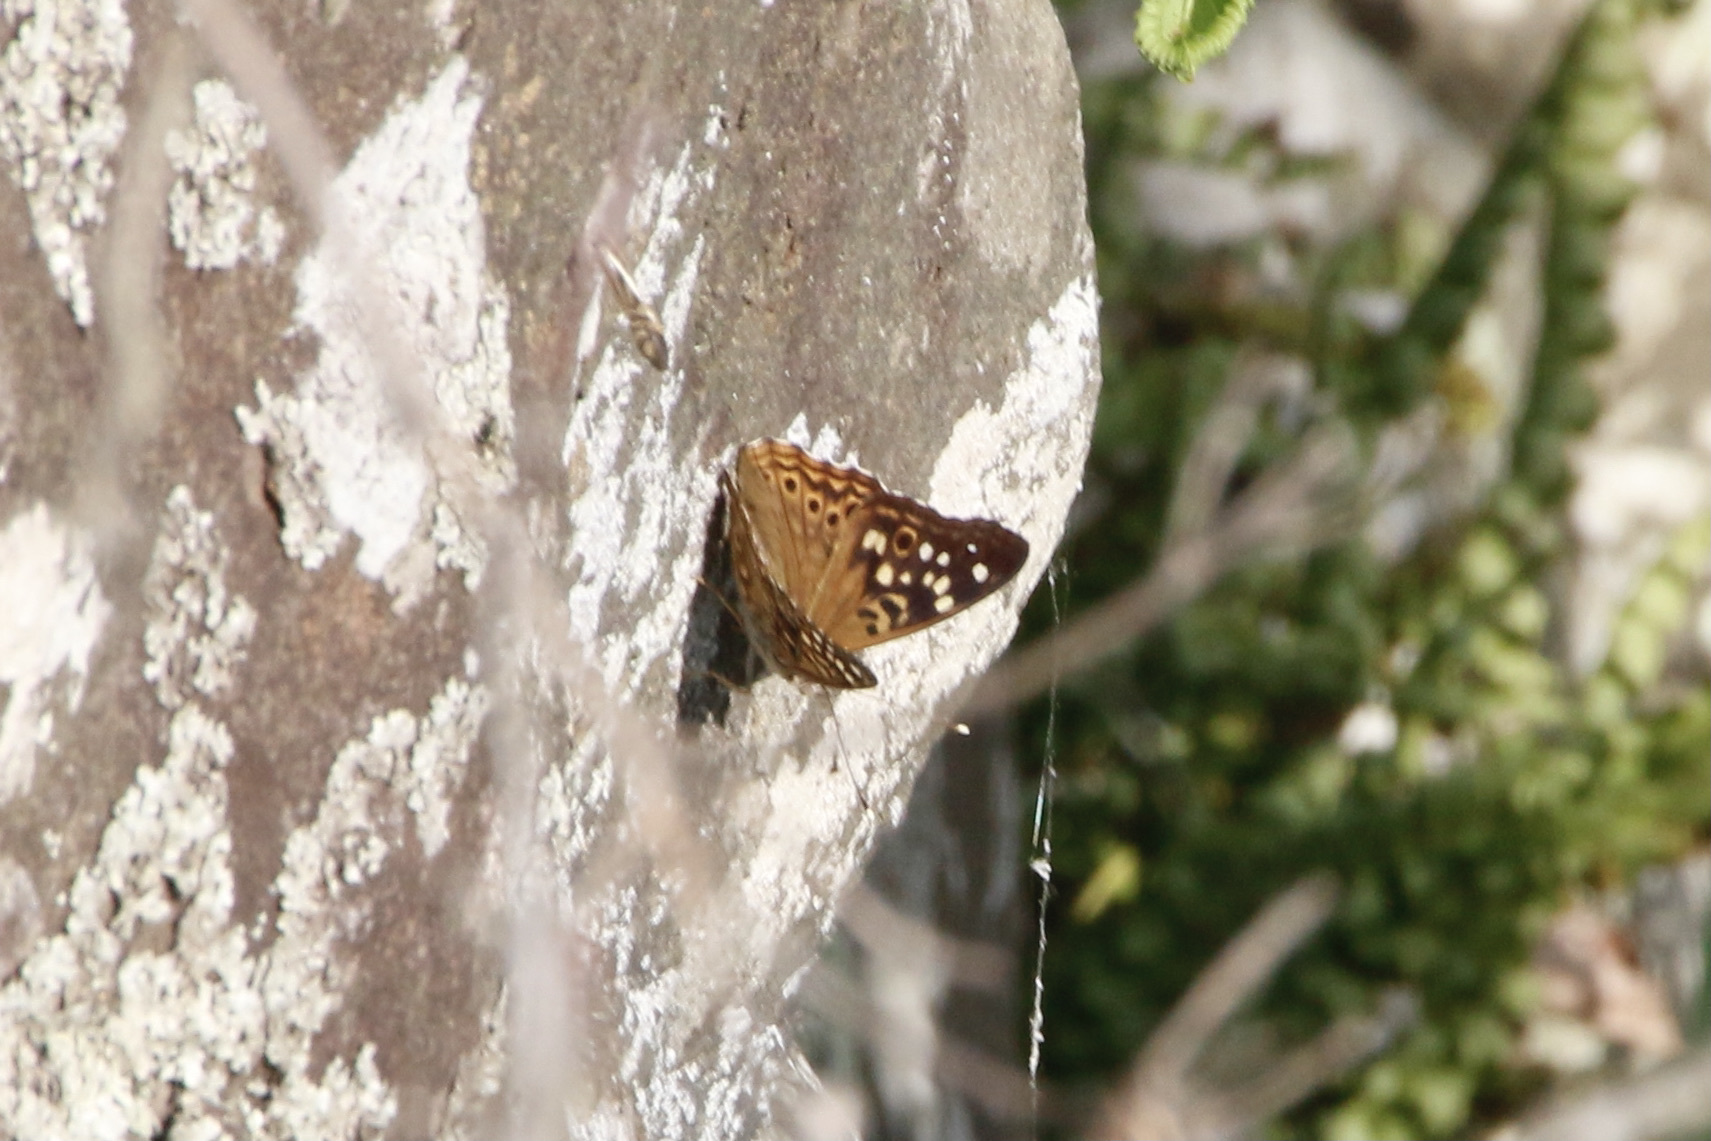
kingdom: Animalia
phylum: Arthropoda
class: Insecta
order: Lepidoptera
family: Nymphalidae
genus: Asterocampa
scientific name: Asterocampa celtis
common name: Hackberry emperor
